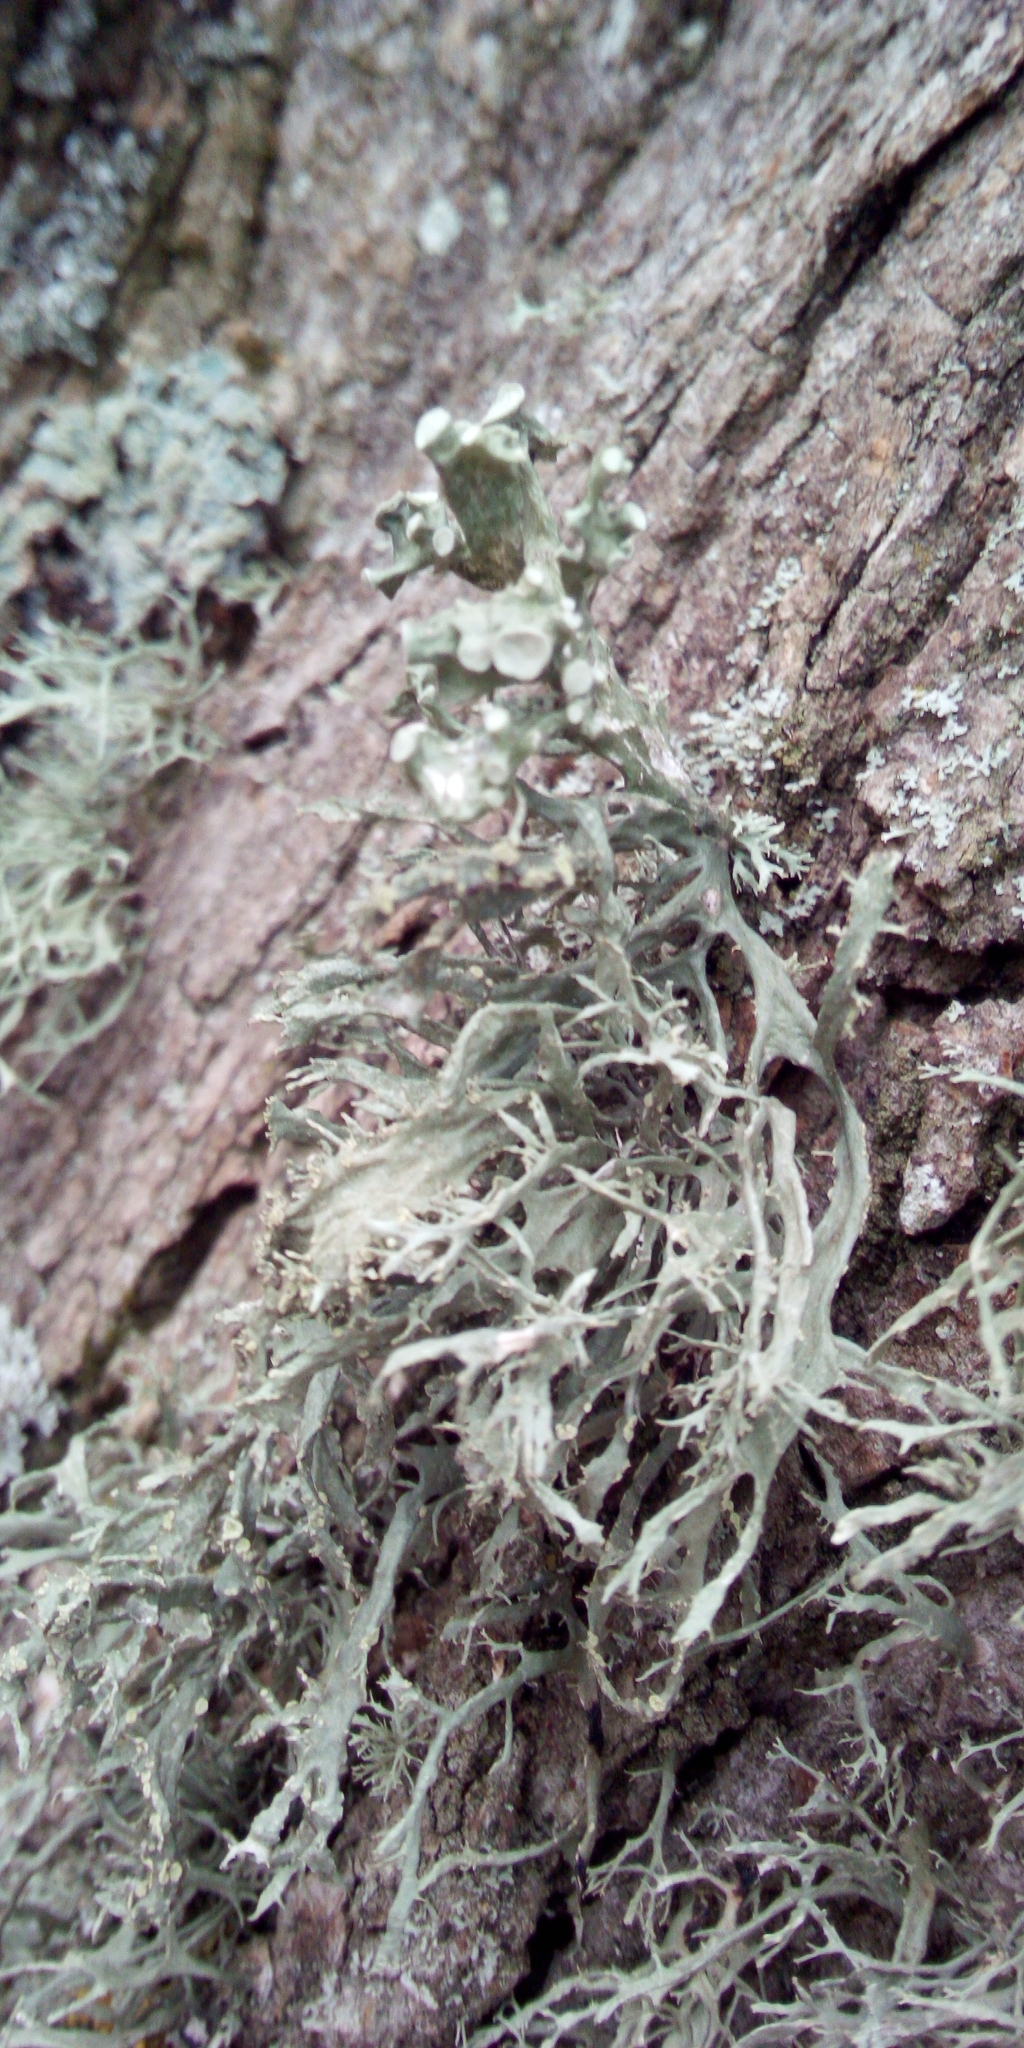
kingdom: Fungi
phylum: Ascomycota
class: Lecanoromycetes
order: Lecanorales
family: Ramalinaceae
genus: Ramalina
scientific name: Ramalina fastigiata
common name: Dotted ribbon lichen
